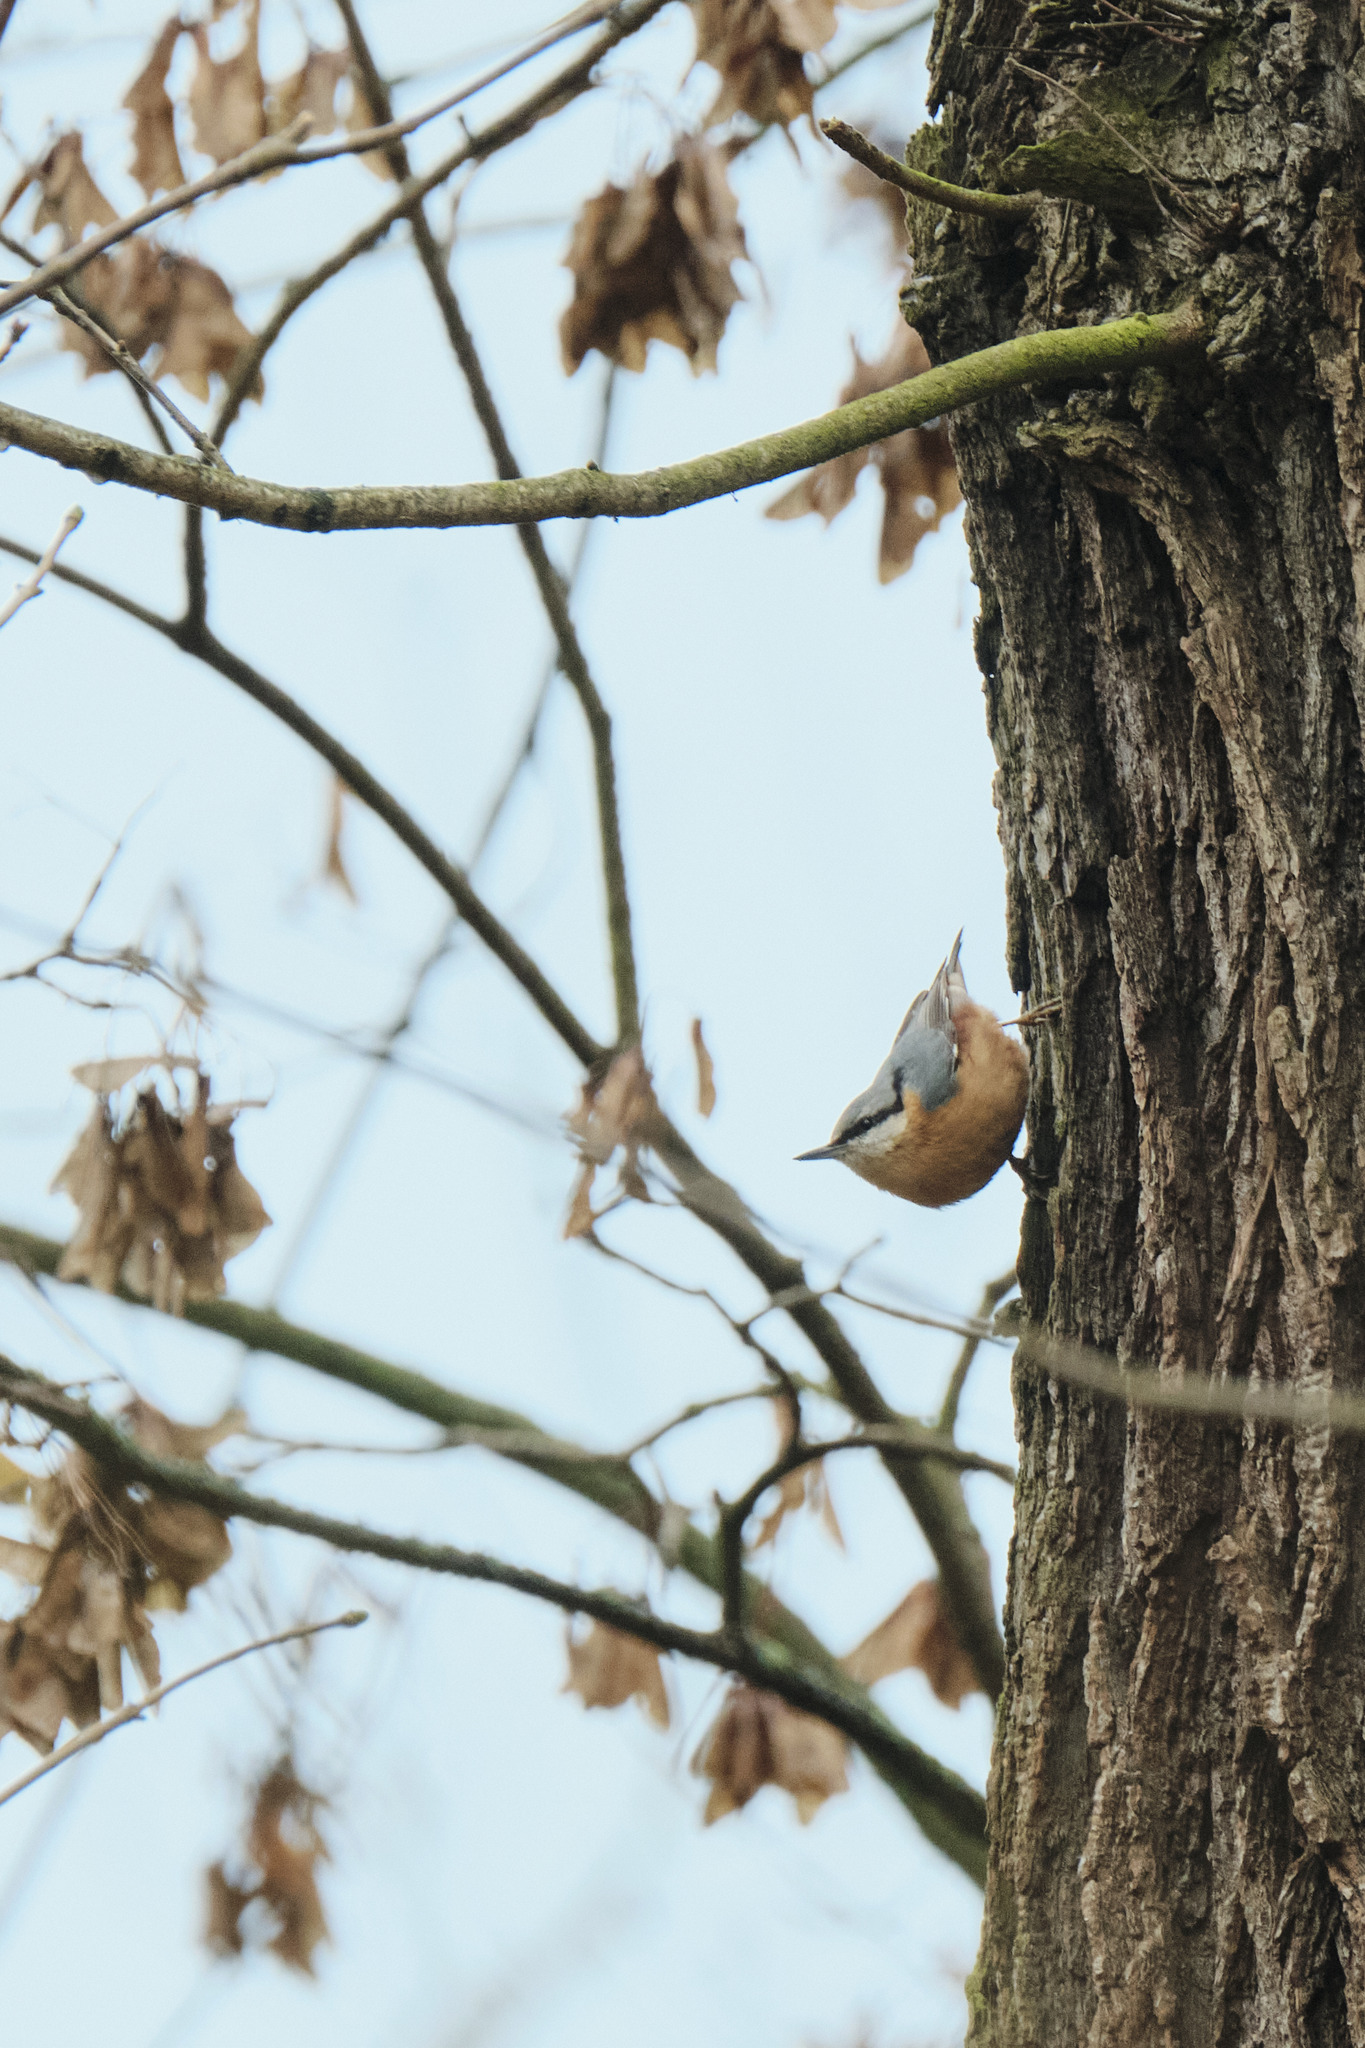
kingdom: Animalia
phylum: Chordata
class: Aves
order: Passeriformes
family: Sittidae
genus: Sitta
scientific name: Sitta europaea
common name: Eurasian nuthatch
